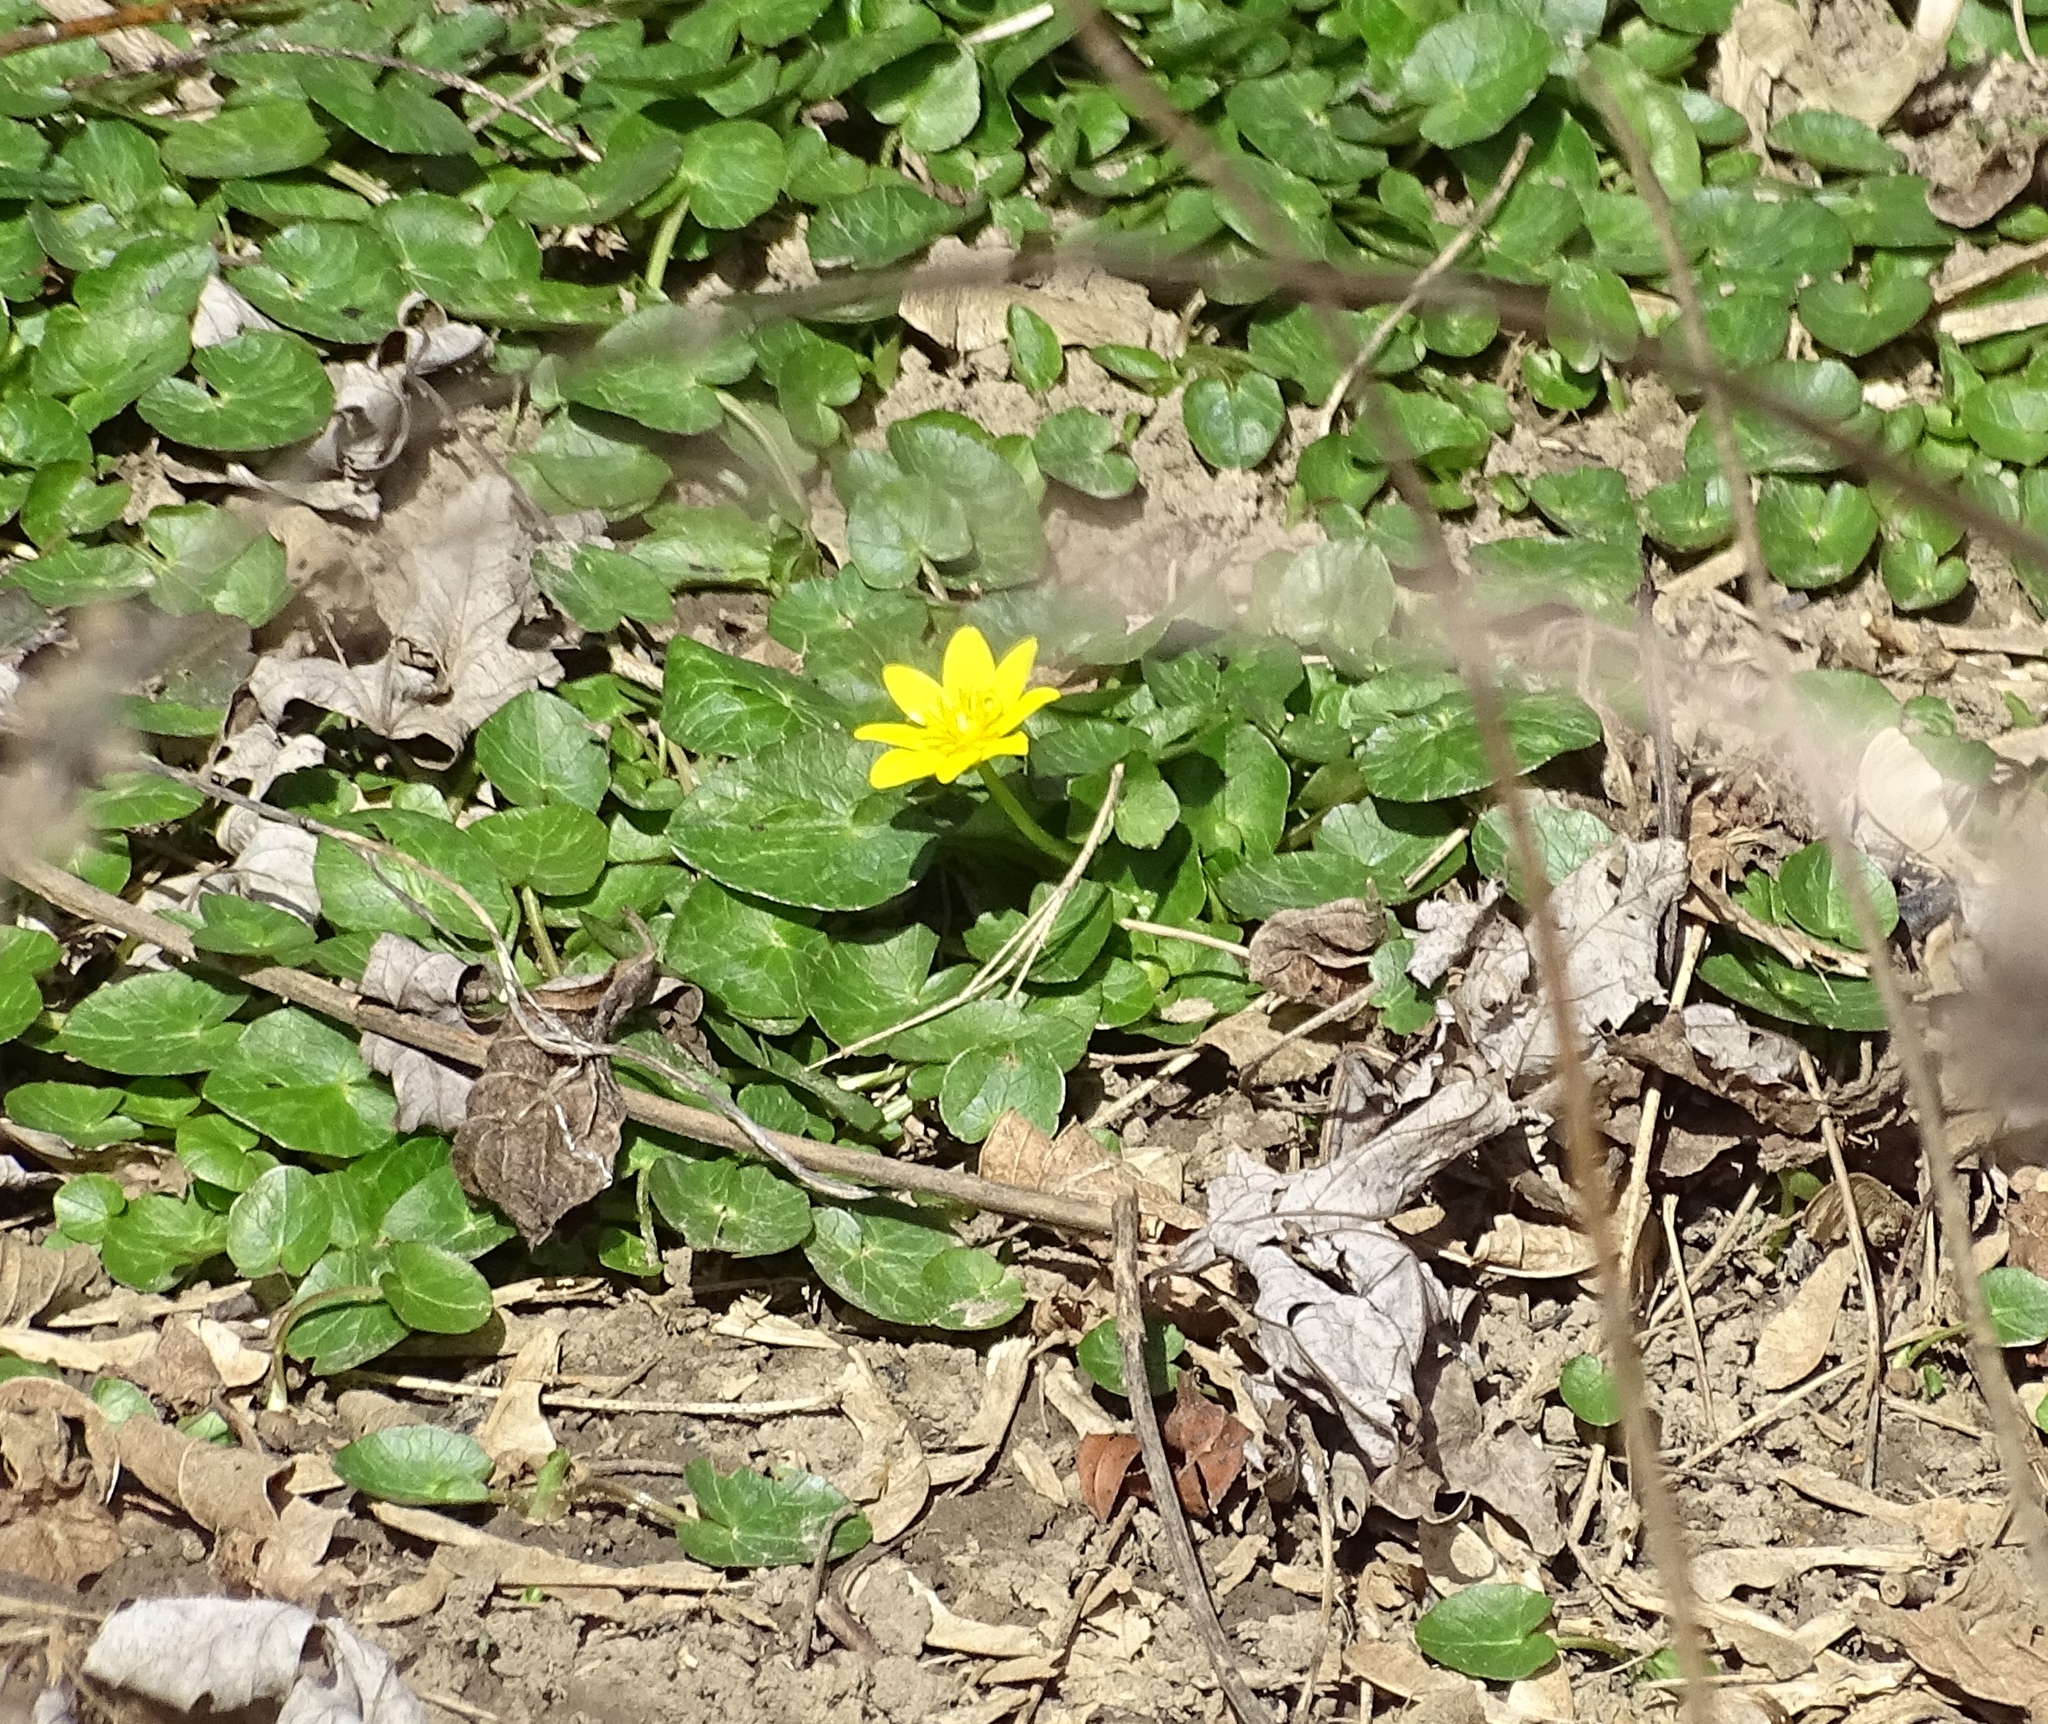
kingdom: Plantae
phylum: Tracheophyta
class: Magnoliopsida
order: Ranunculales
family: Ranunculaceae
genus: Ficaria
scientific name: Ficaria verna
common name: Lesser celandine
